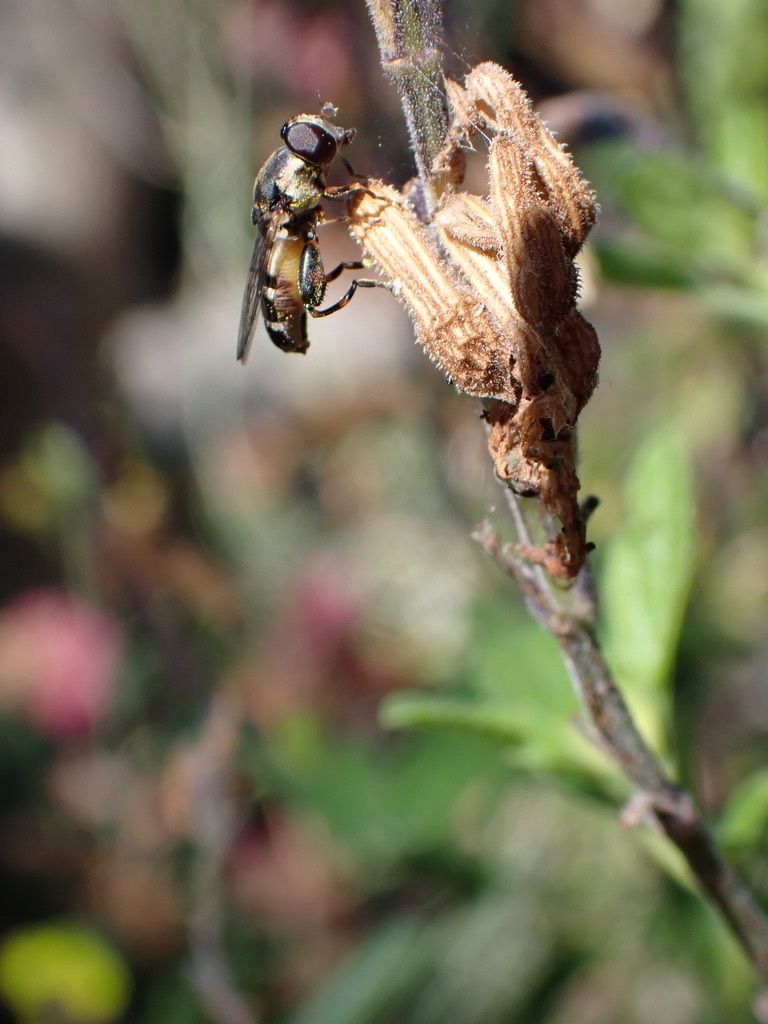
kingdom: Animalia
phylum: Arthropoda
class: Insecta
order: Diptera
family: Syrphidae
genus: Syritta
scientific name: Syritta pipiens
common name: Hover fly
